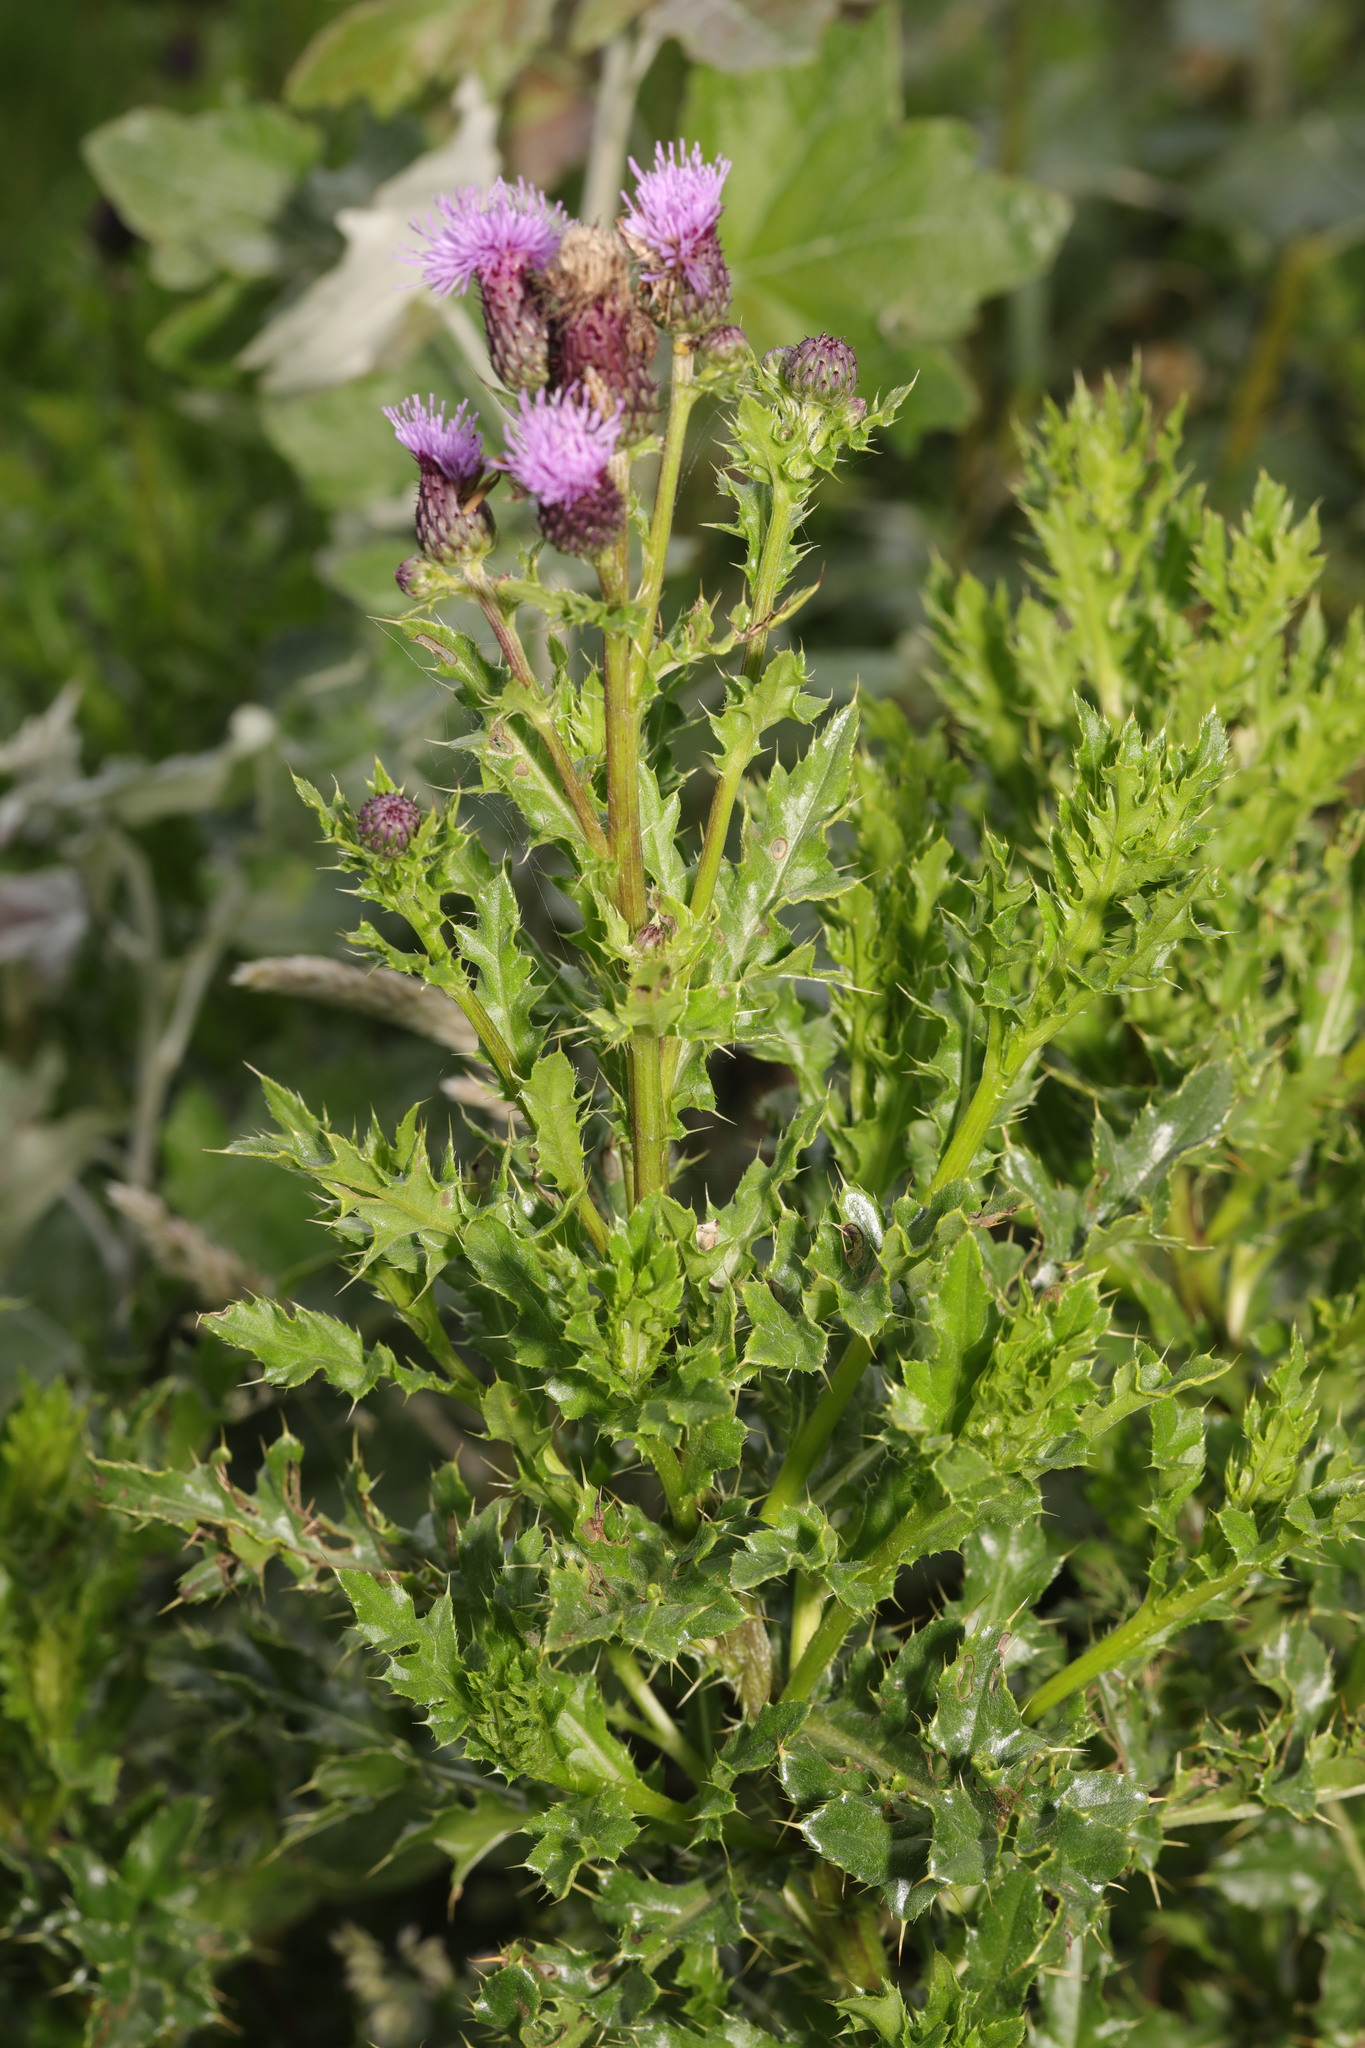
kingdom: Plantae
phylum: Tracheophyta
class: Magnoliopsida
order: Asterales
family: Asteraceae
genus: Cirsium
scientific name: Cirsium arvense
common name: Creeping thistle
